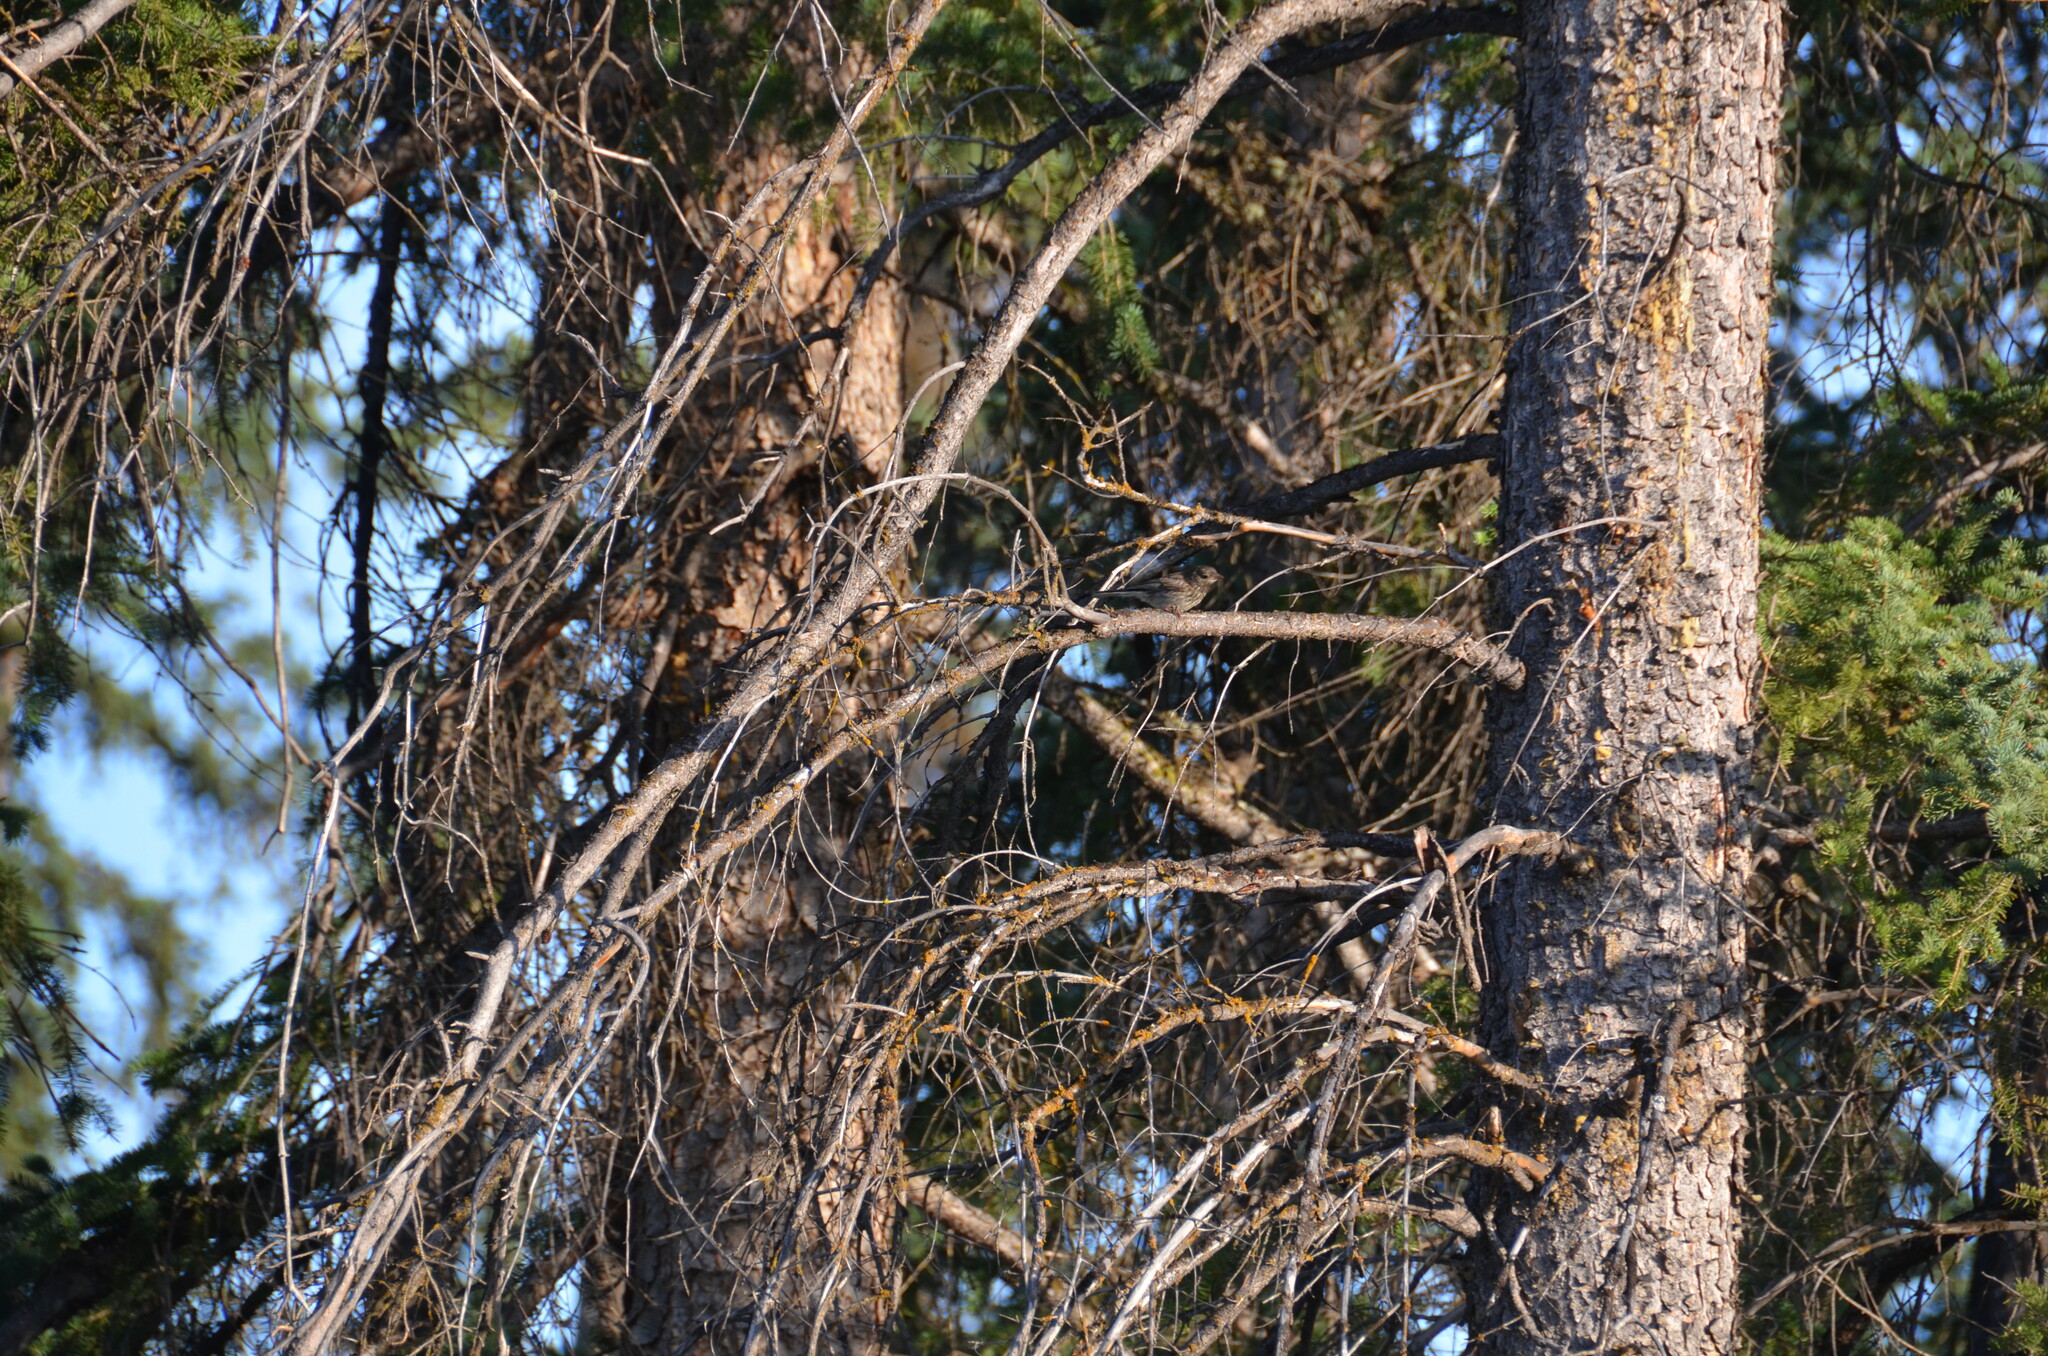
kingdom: Animalia
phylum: Chordata
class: Aves
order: Passeriformes
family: Passerellidae
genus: Junco
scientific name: Junco hyemalis
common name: Dark-eyed junco
